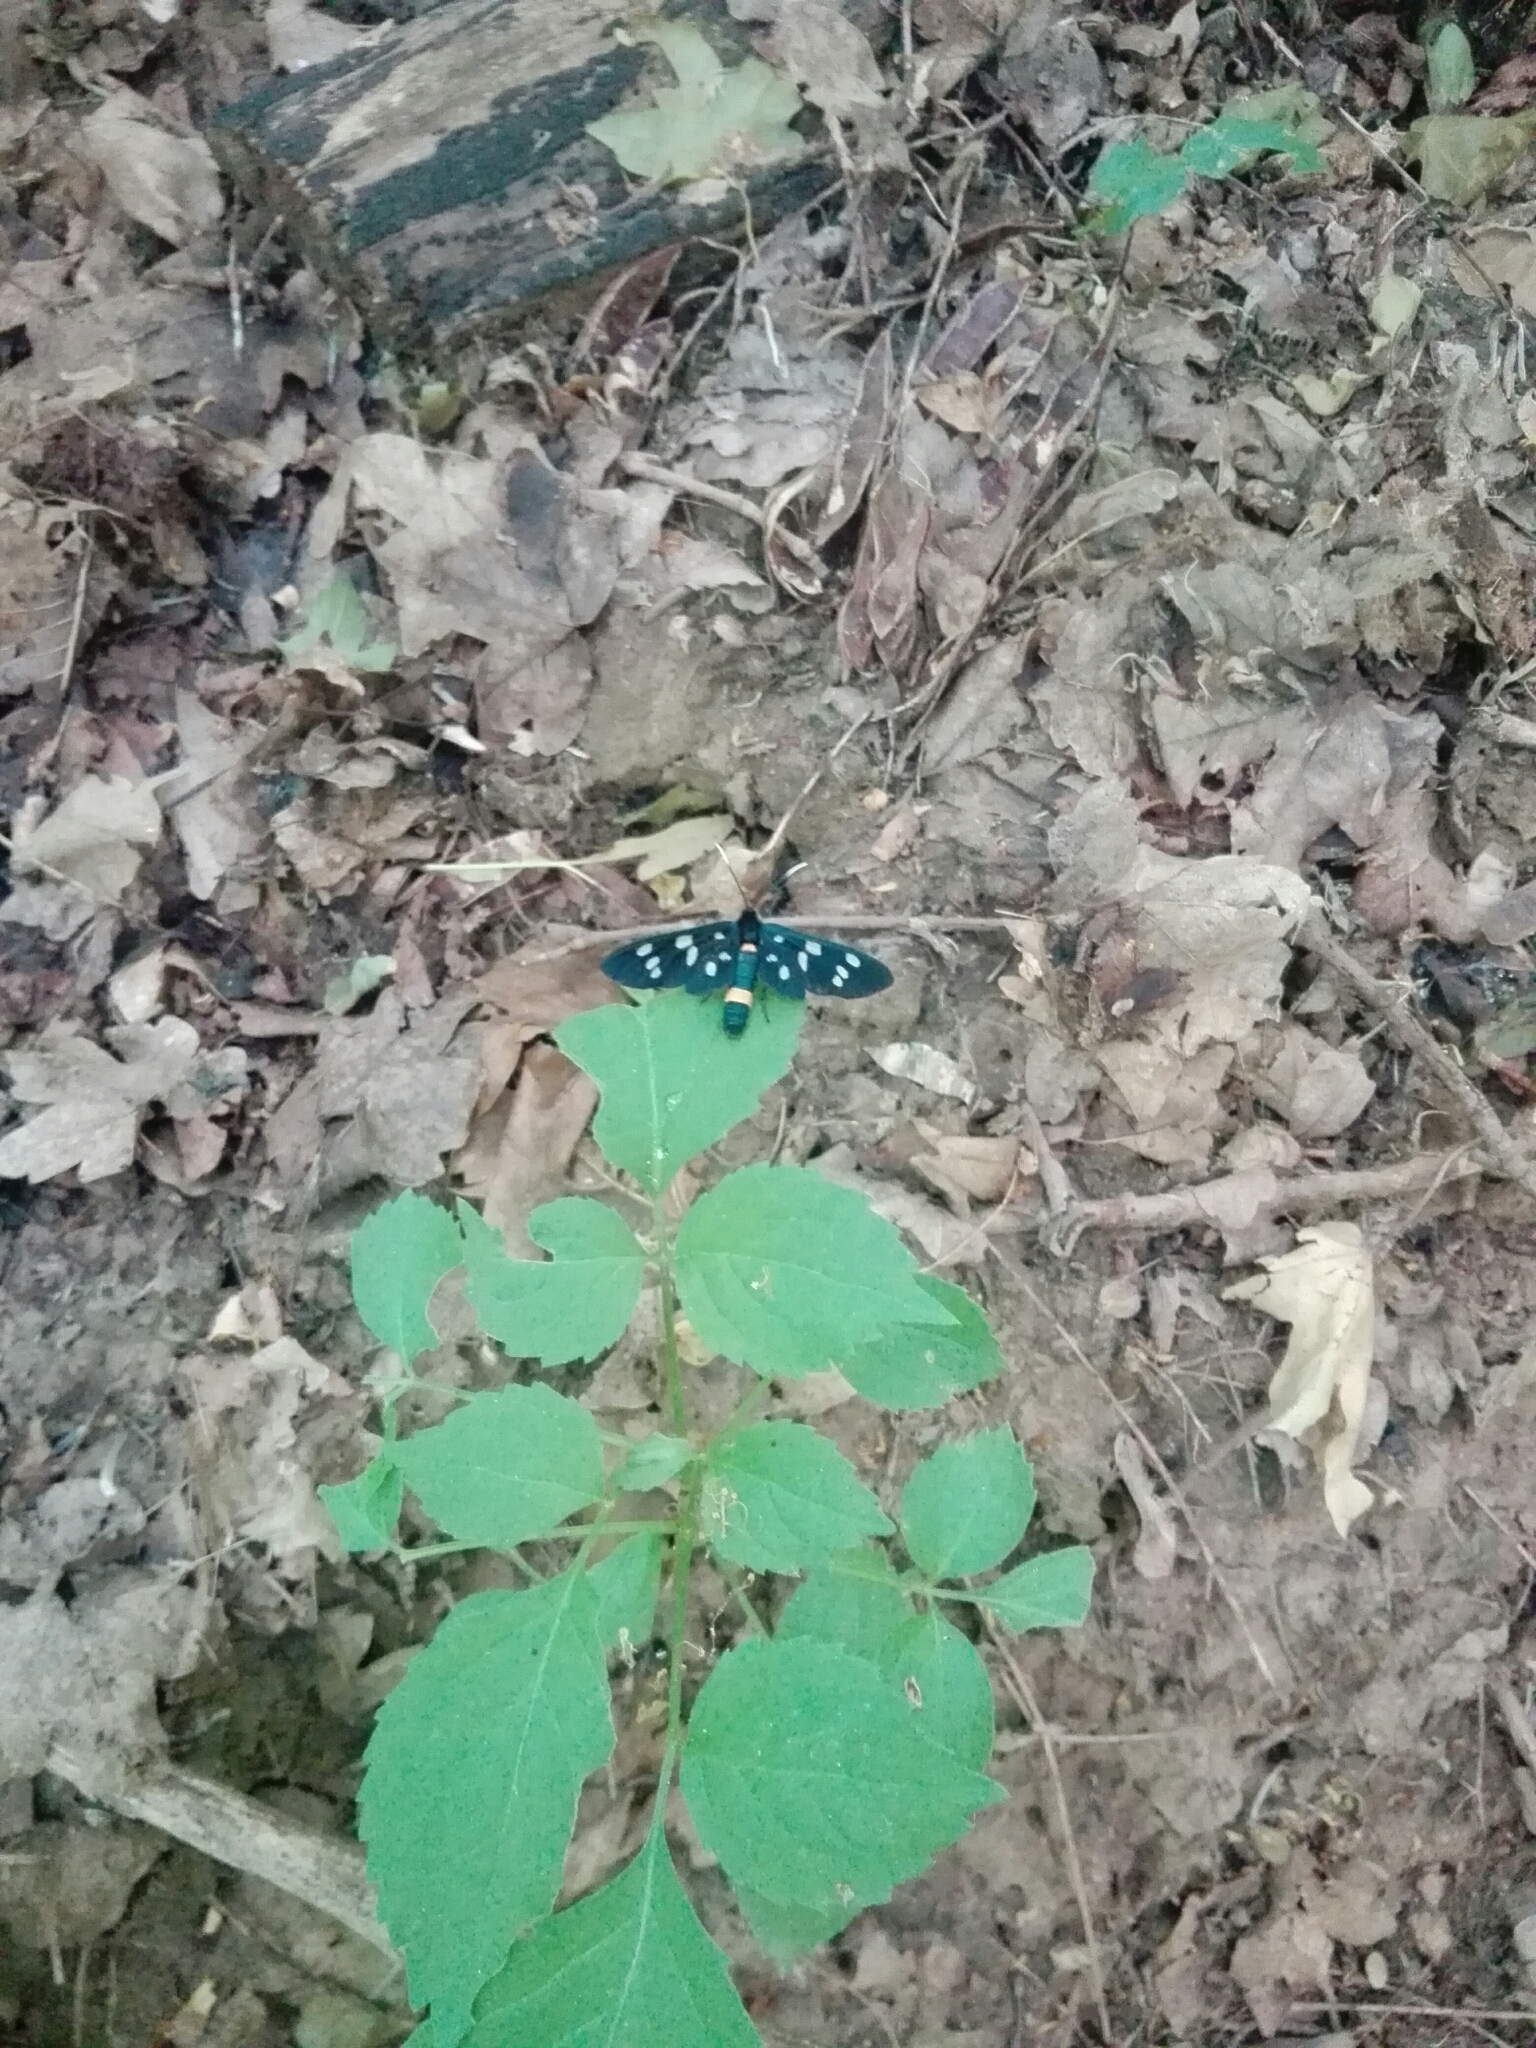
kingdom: Animalia
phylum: Arthropoda
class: Insecta
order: Lepidoptera
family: Erebidae
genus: Amata
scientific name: Amata phegea
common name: Nine-spotted
